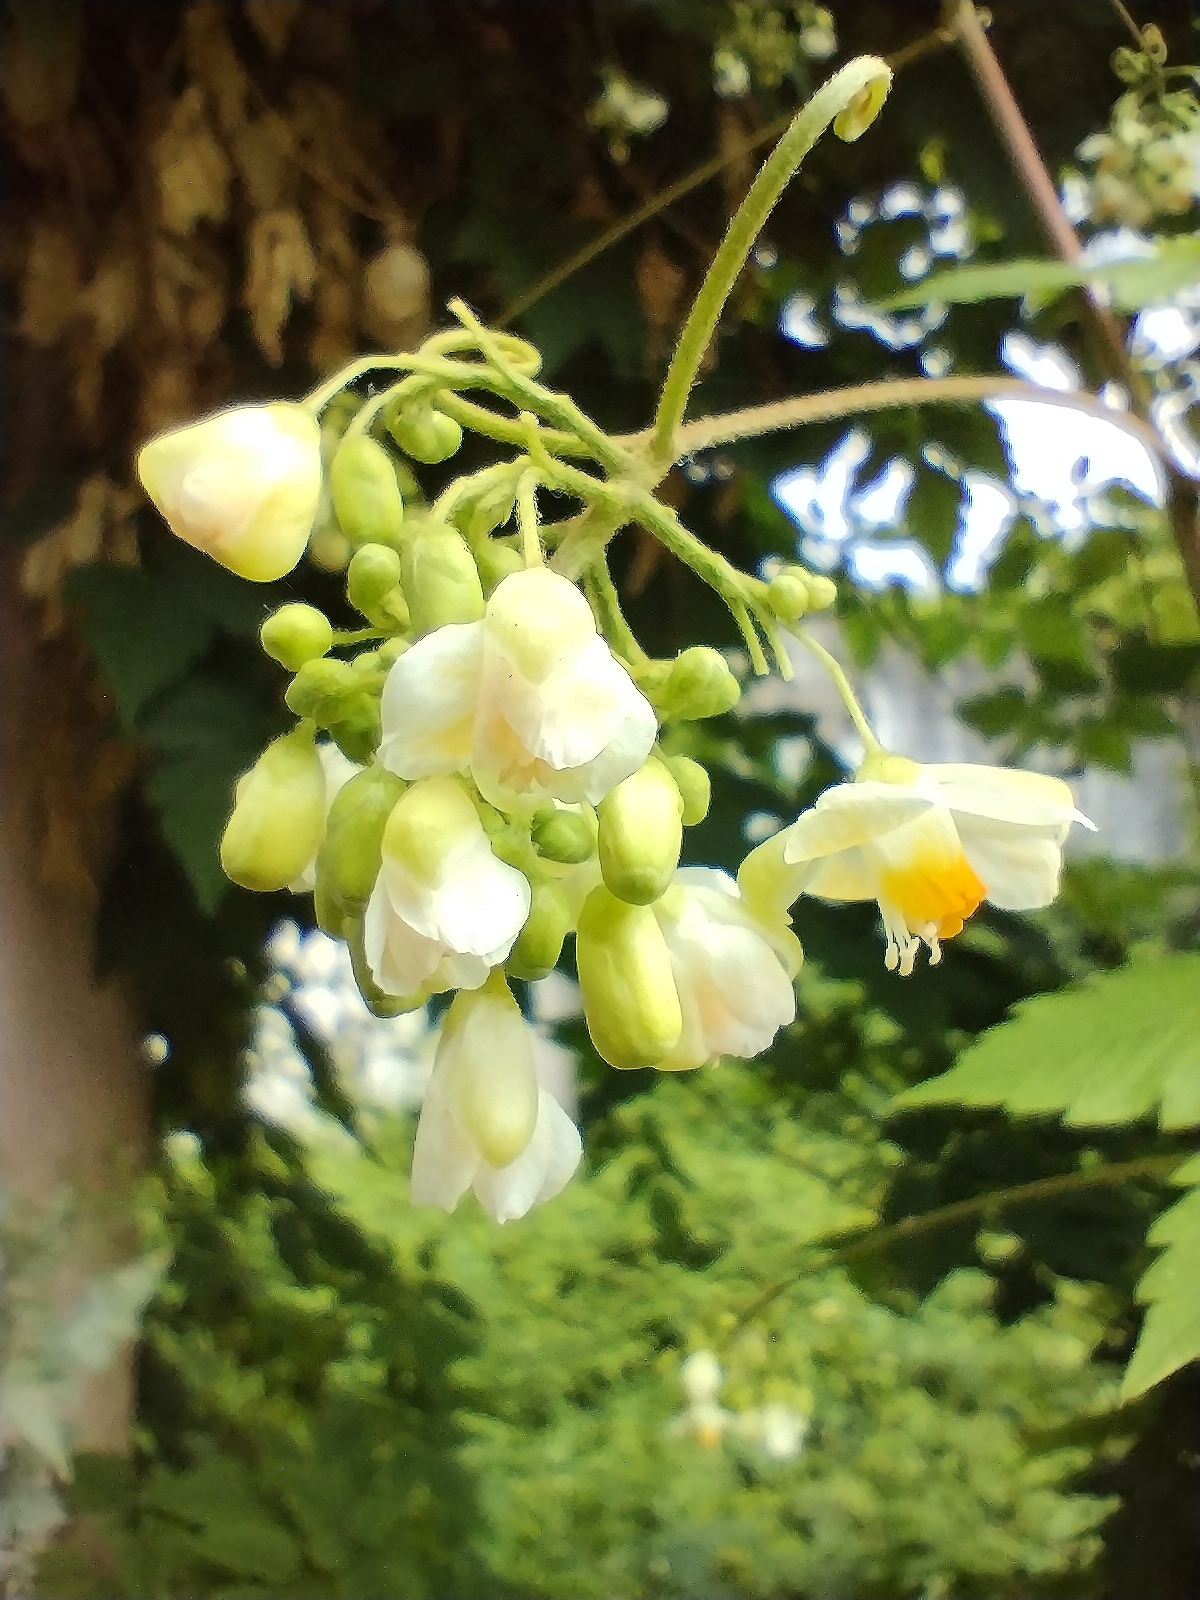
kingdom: Plantae
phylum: Tracheophyta
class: Magnoliopsida
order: Sapindales
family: Sapindaceae
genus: Cardiospermum
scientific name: Cardiospermum grandiflorum
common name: Balloon vine
